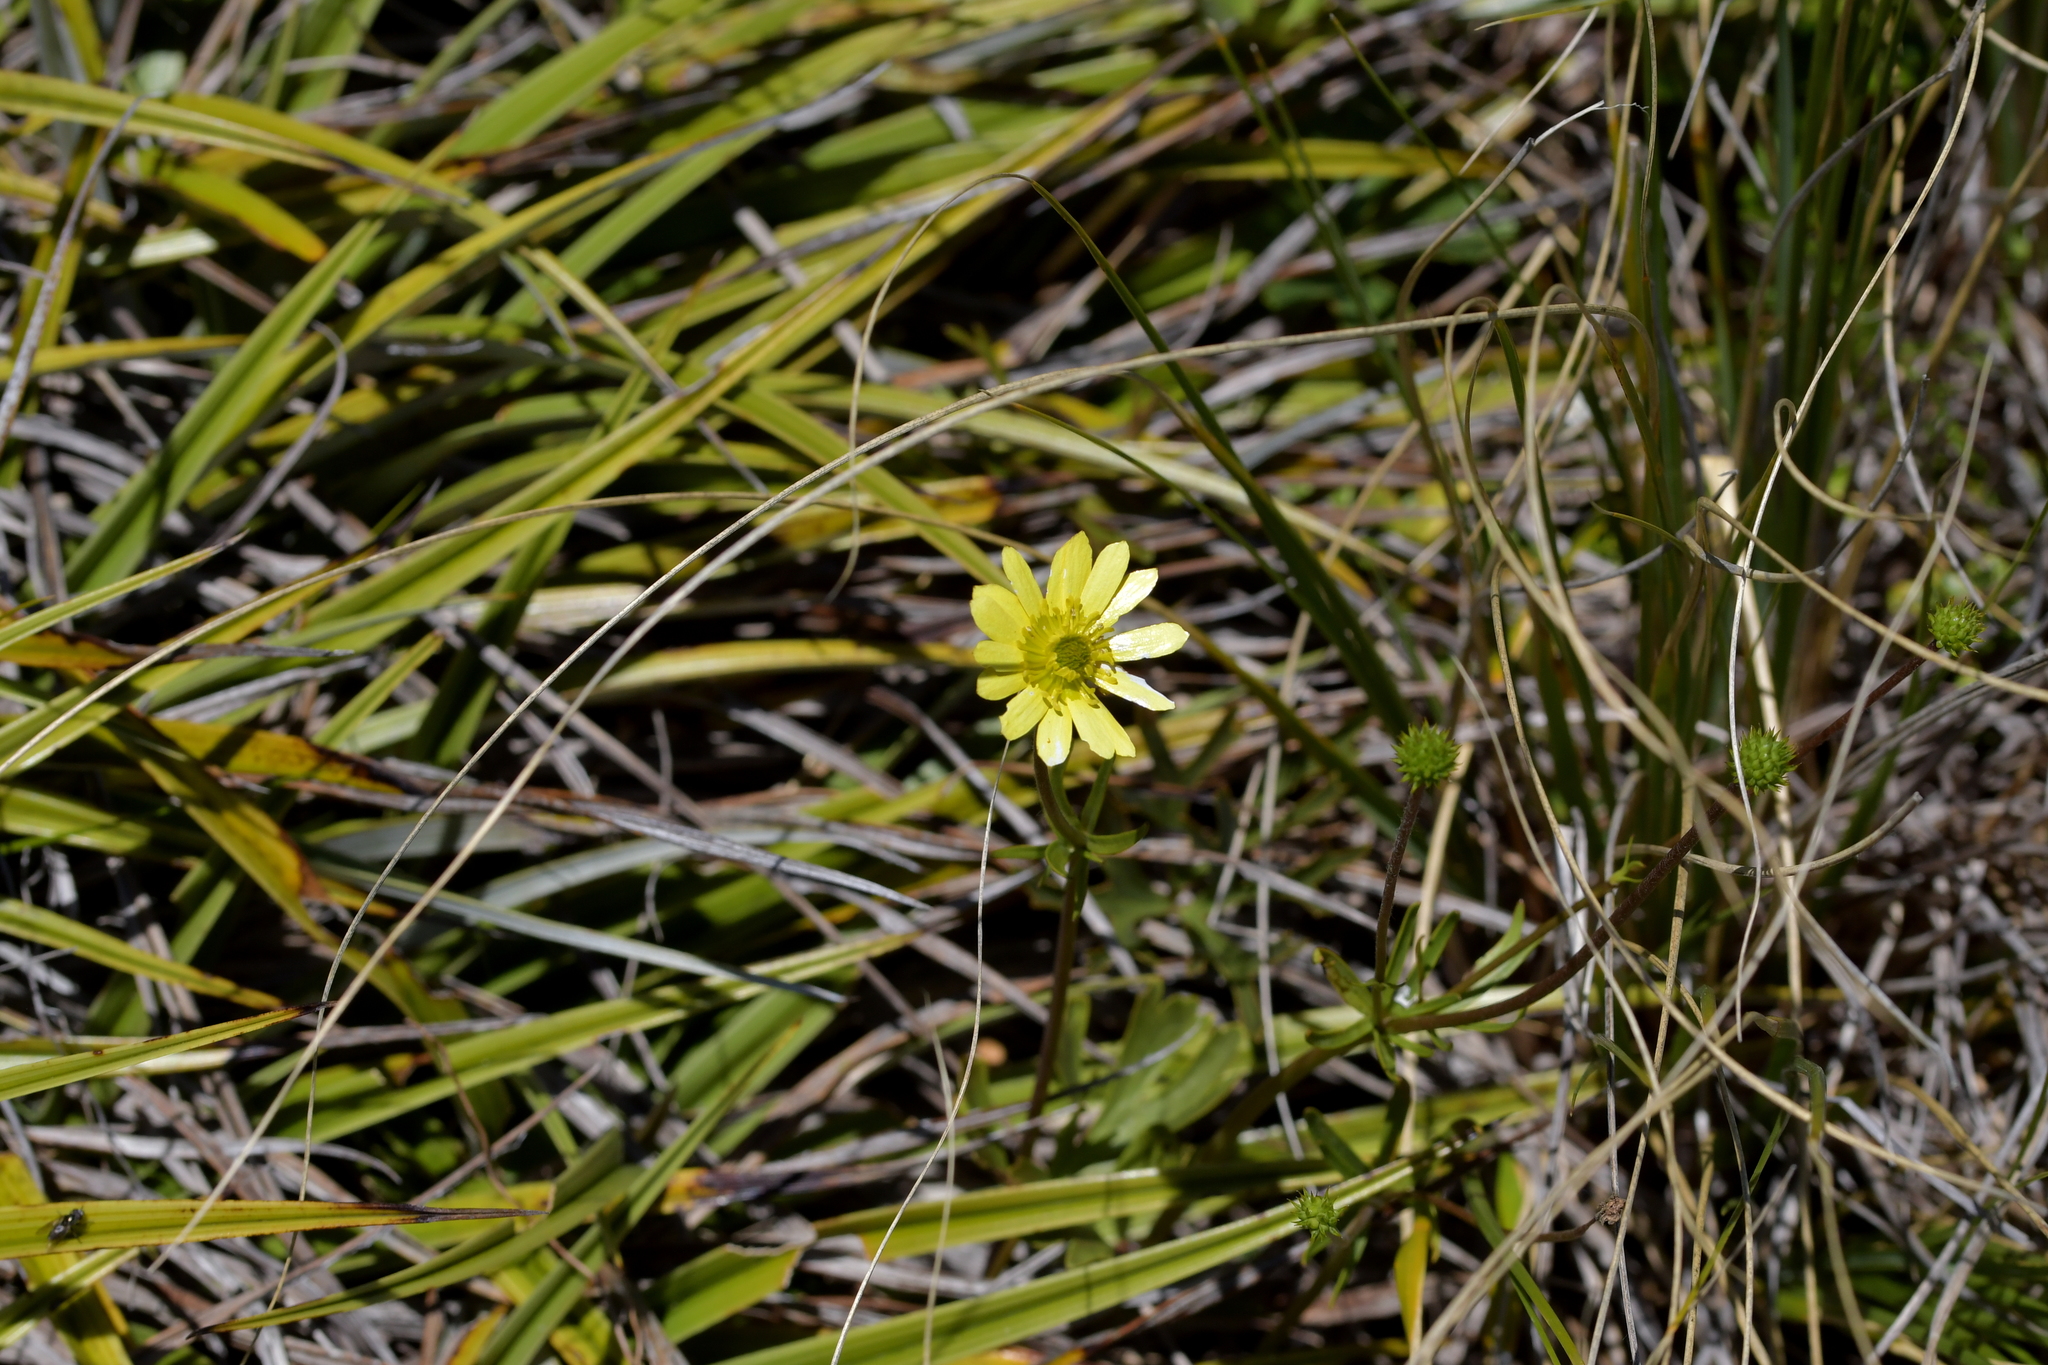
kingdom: Plantae
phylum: Tracheophyta
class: Magnoliopsida
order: Ranunculales
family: Ranunculaceae
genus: Ranunculus
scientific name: Ranunculus verticillatus
